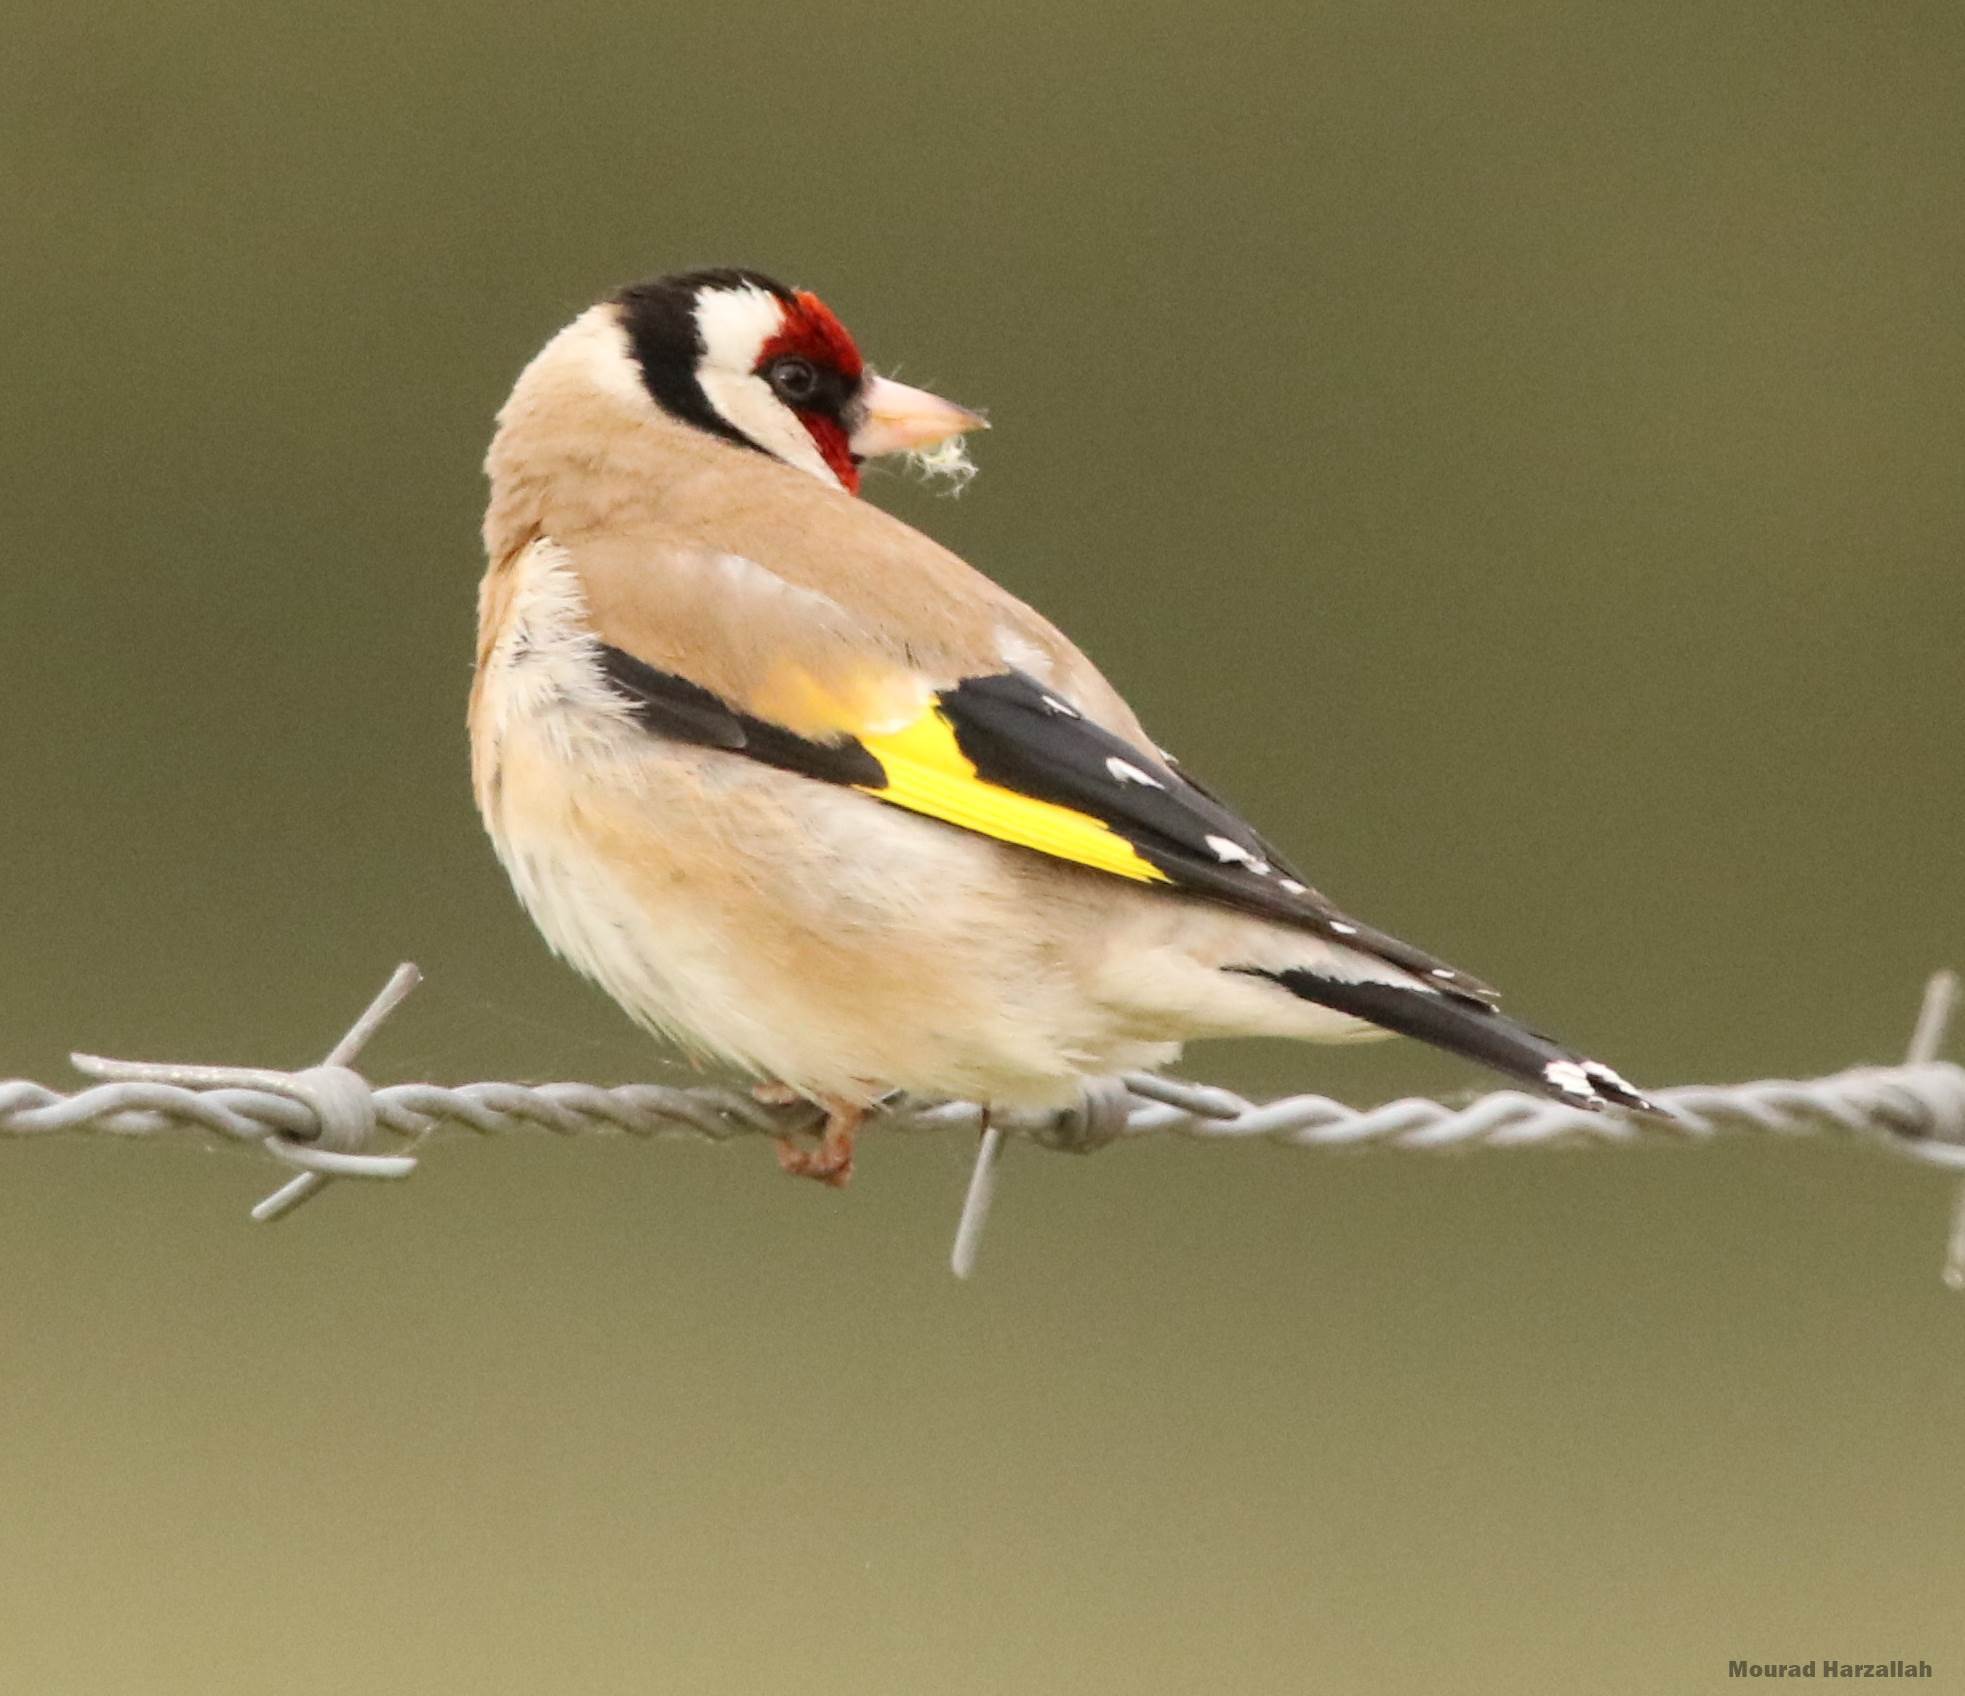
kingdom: Animalia
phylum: Chordata
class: Aves
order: Passeriformes
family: Fringillidae
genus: Carduelis
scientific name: Carduelis carduelis
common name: European goldfinch
